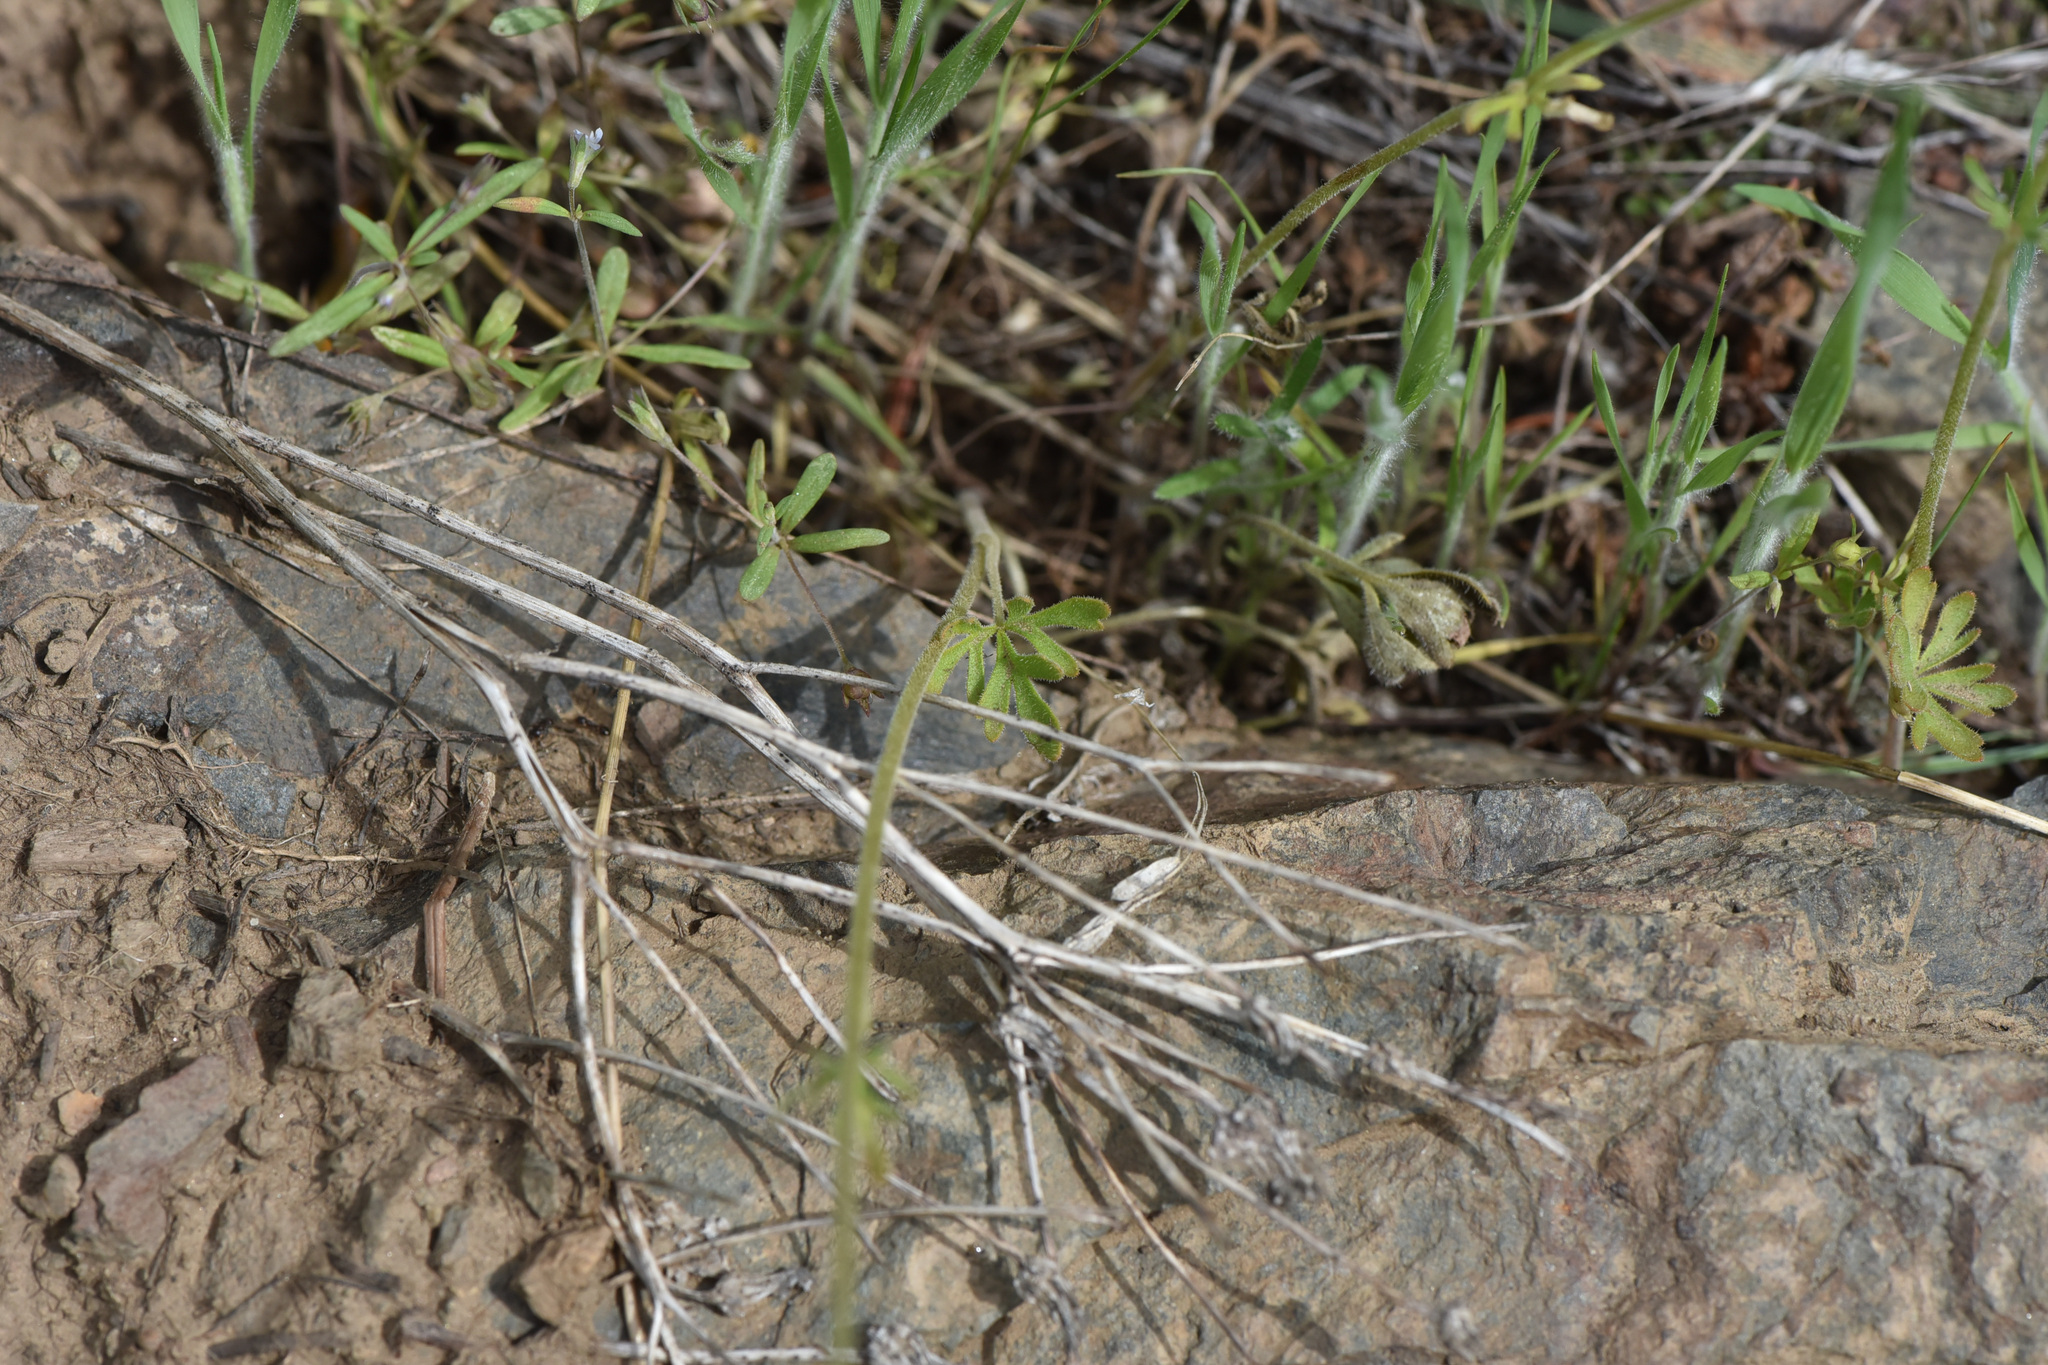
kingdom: Plantae
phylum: Tracheophyta
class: Magnoliopsida
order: Saxifragales
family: Saxifragaceae
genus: Lithophragma
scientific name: Lithophragma parviflorum
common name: Small-flowered fringe-cup
